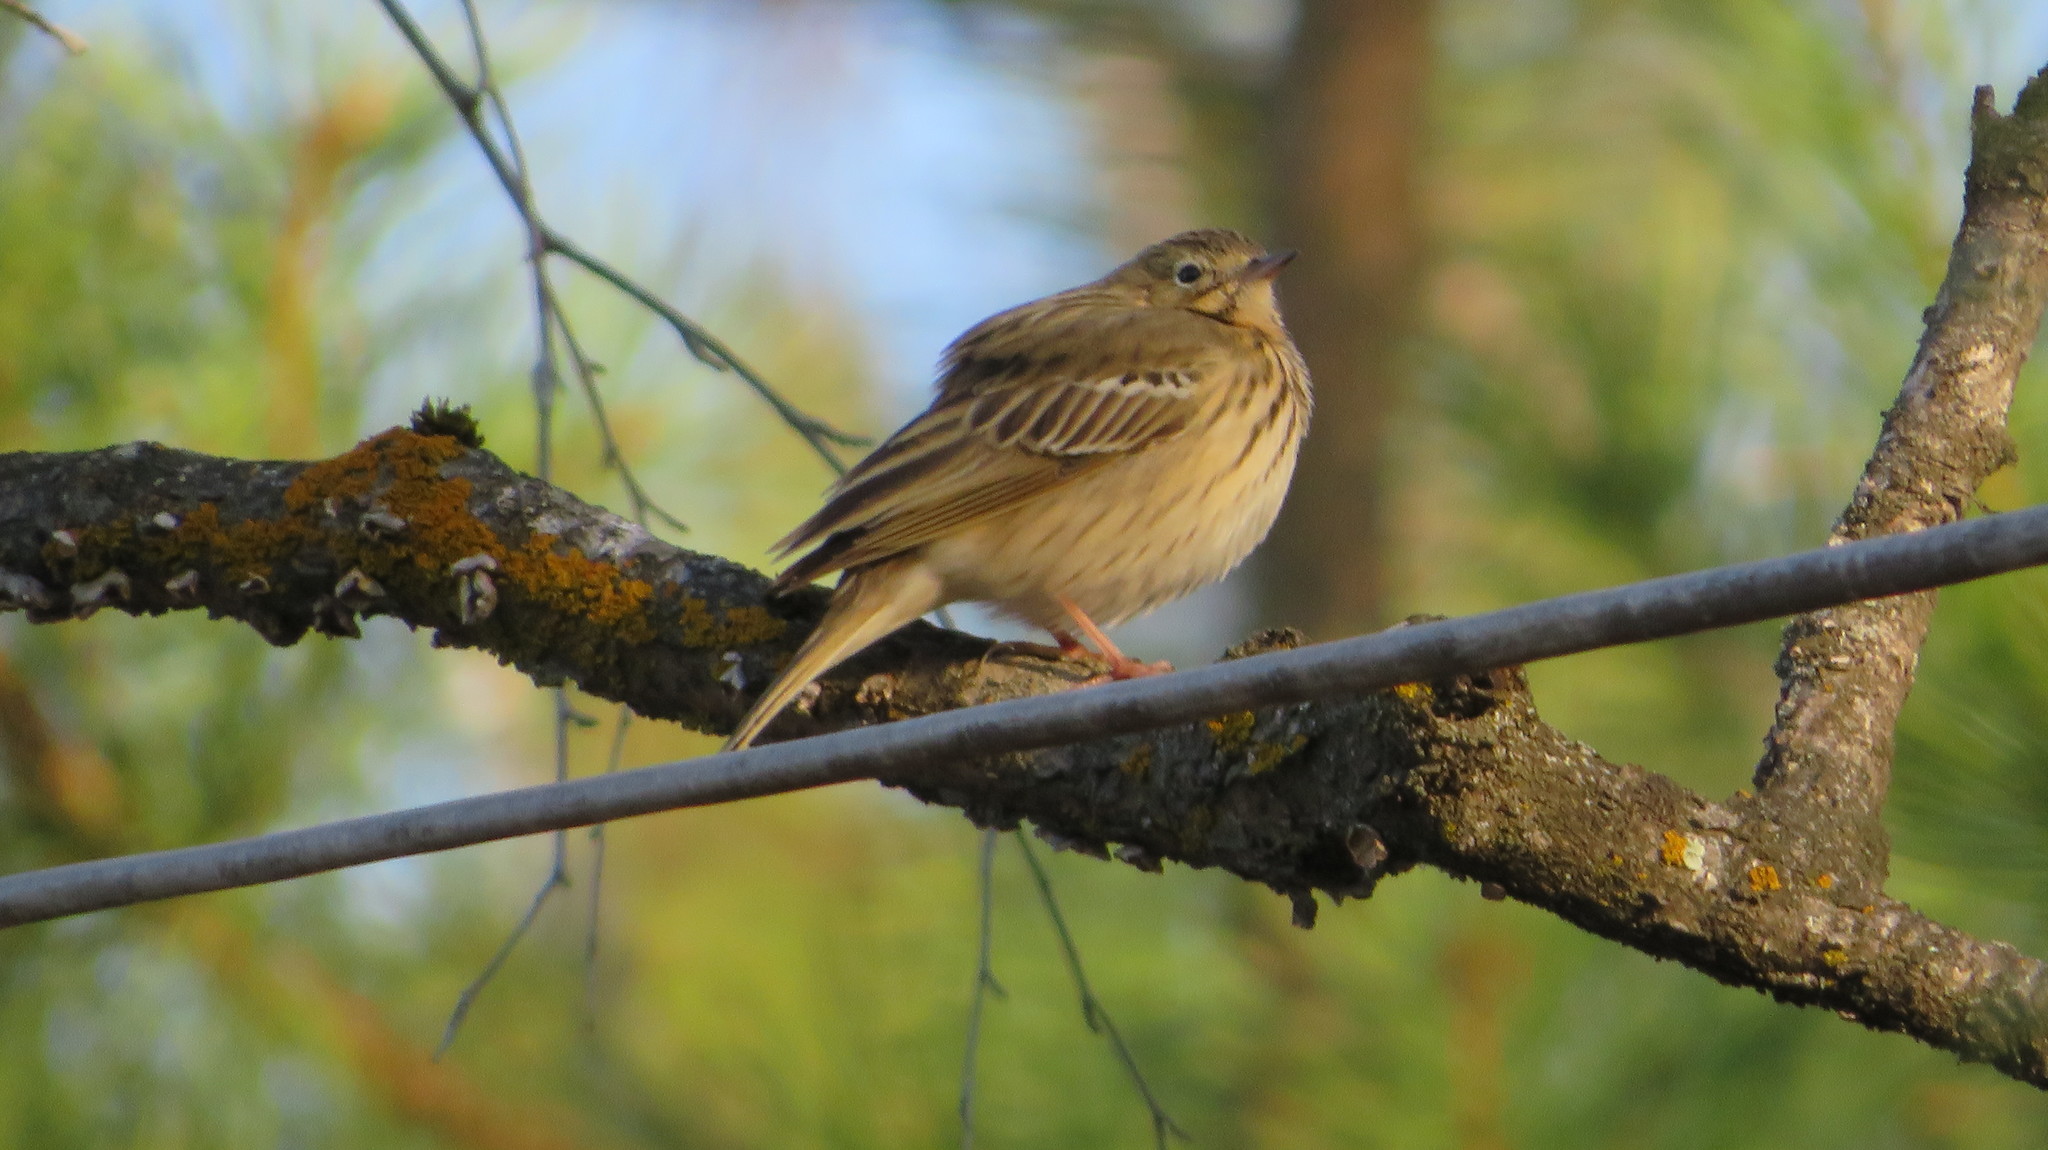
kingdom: Animalia
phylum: Chordata
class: Aves
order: Passeriformes
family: Motacillidae
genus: Anthus
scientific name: Anthus trivialis
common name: Tree pipit
